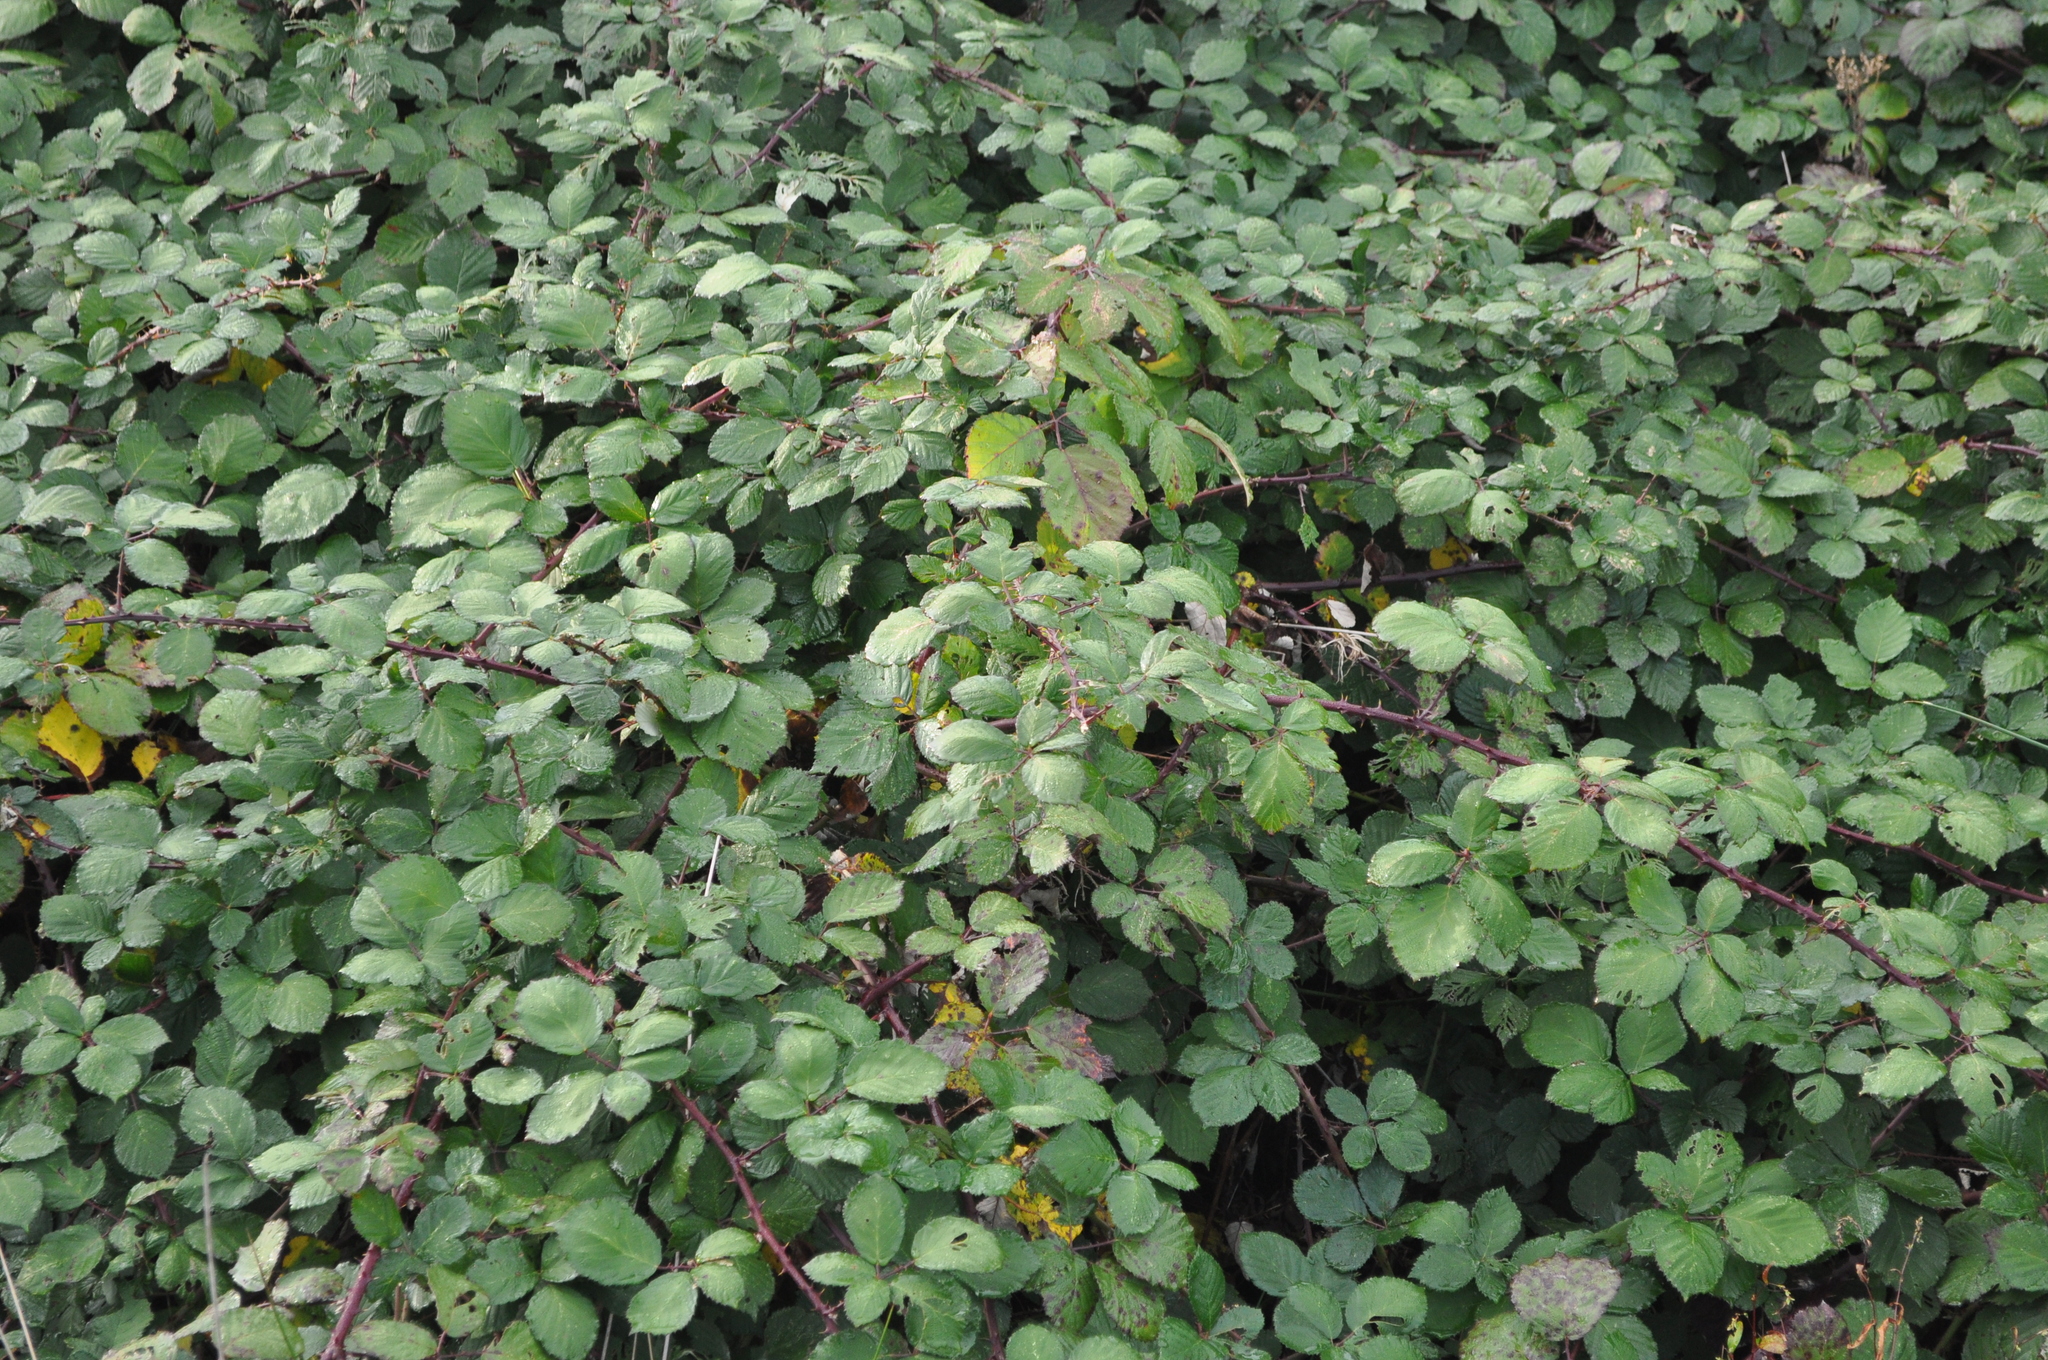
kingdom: Plantae
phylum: Tracheophyta
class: Magnoliopsida
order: Rosales
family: Rosaceae
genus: Rubus
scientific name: Rubus
